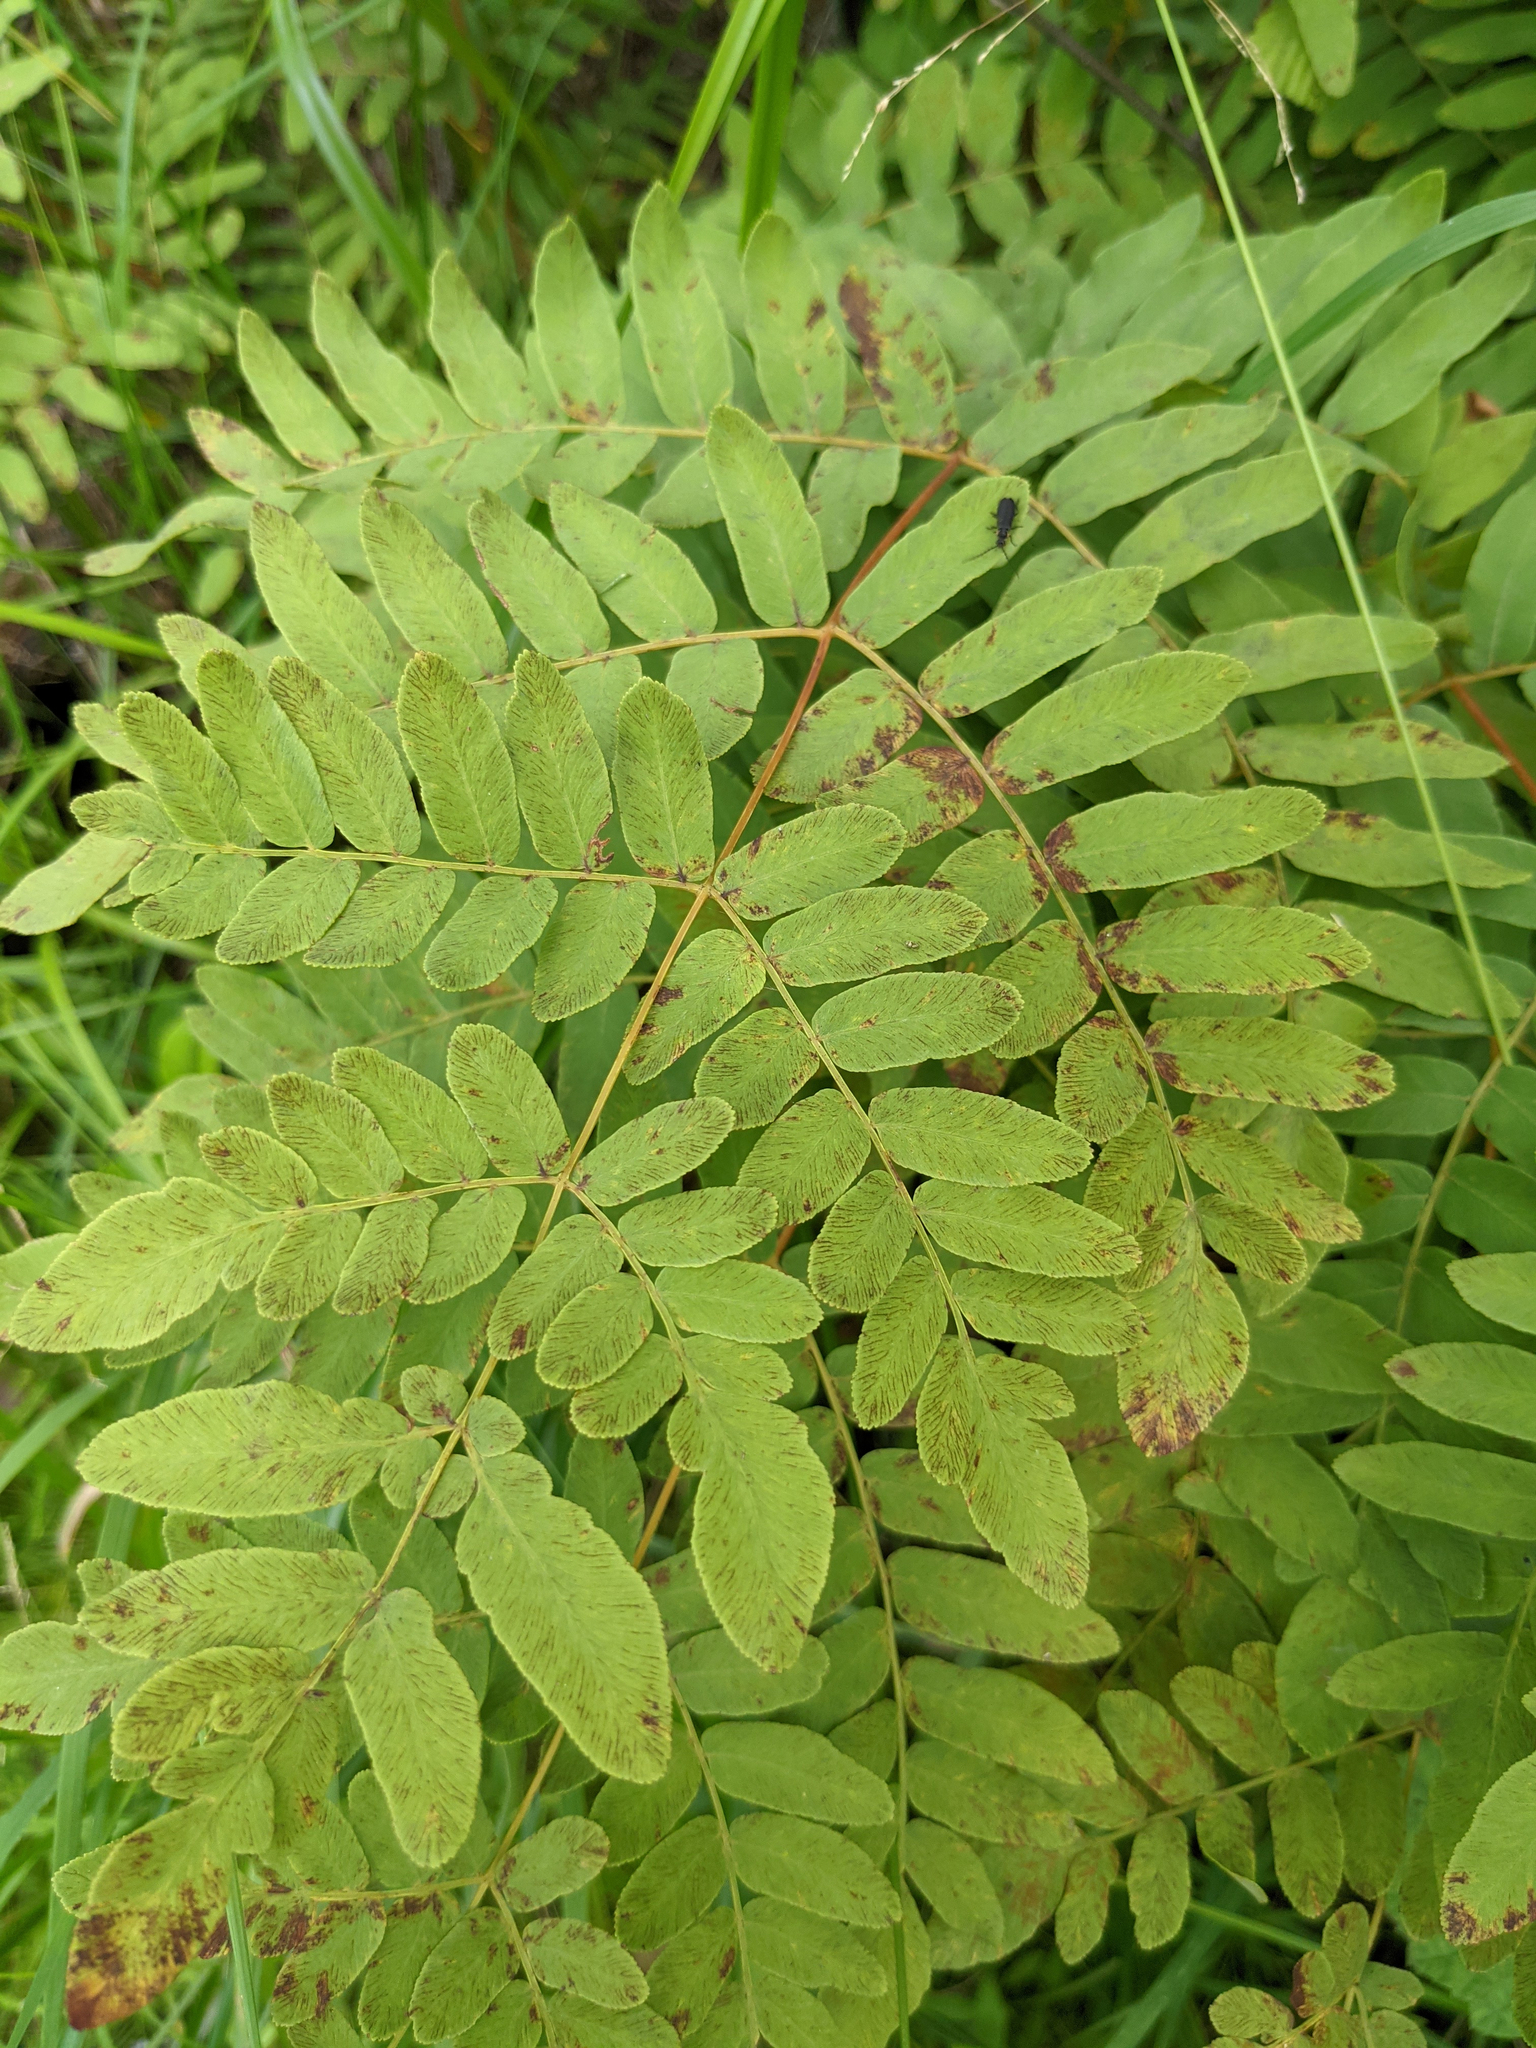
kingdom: Plantae
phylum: Tracheophyta
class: Polypodiopsida
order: Osmundales
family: Osmundaceae
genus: Osmunda
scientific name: Osmunda spectabilis
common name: American royal fern
